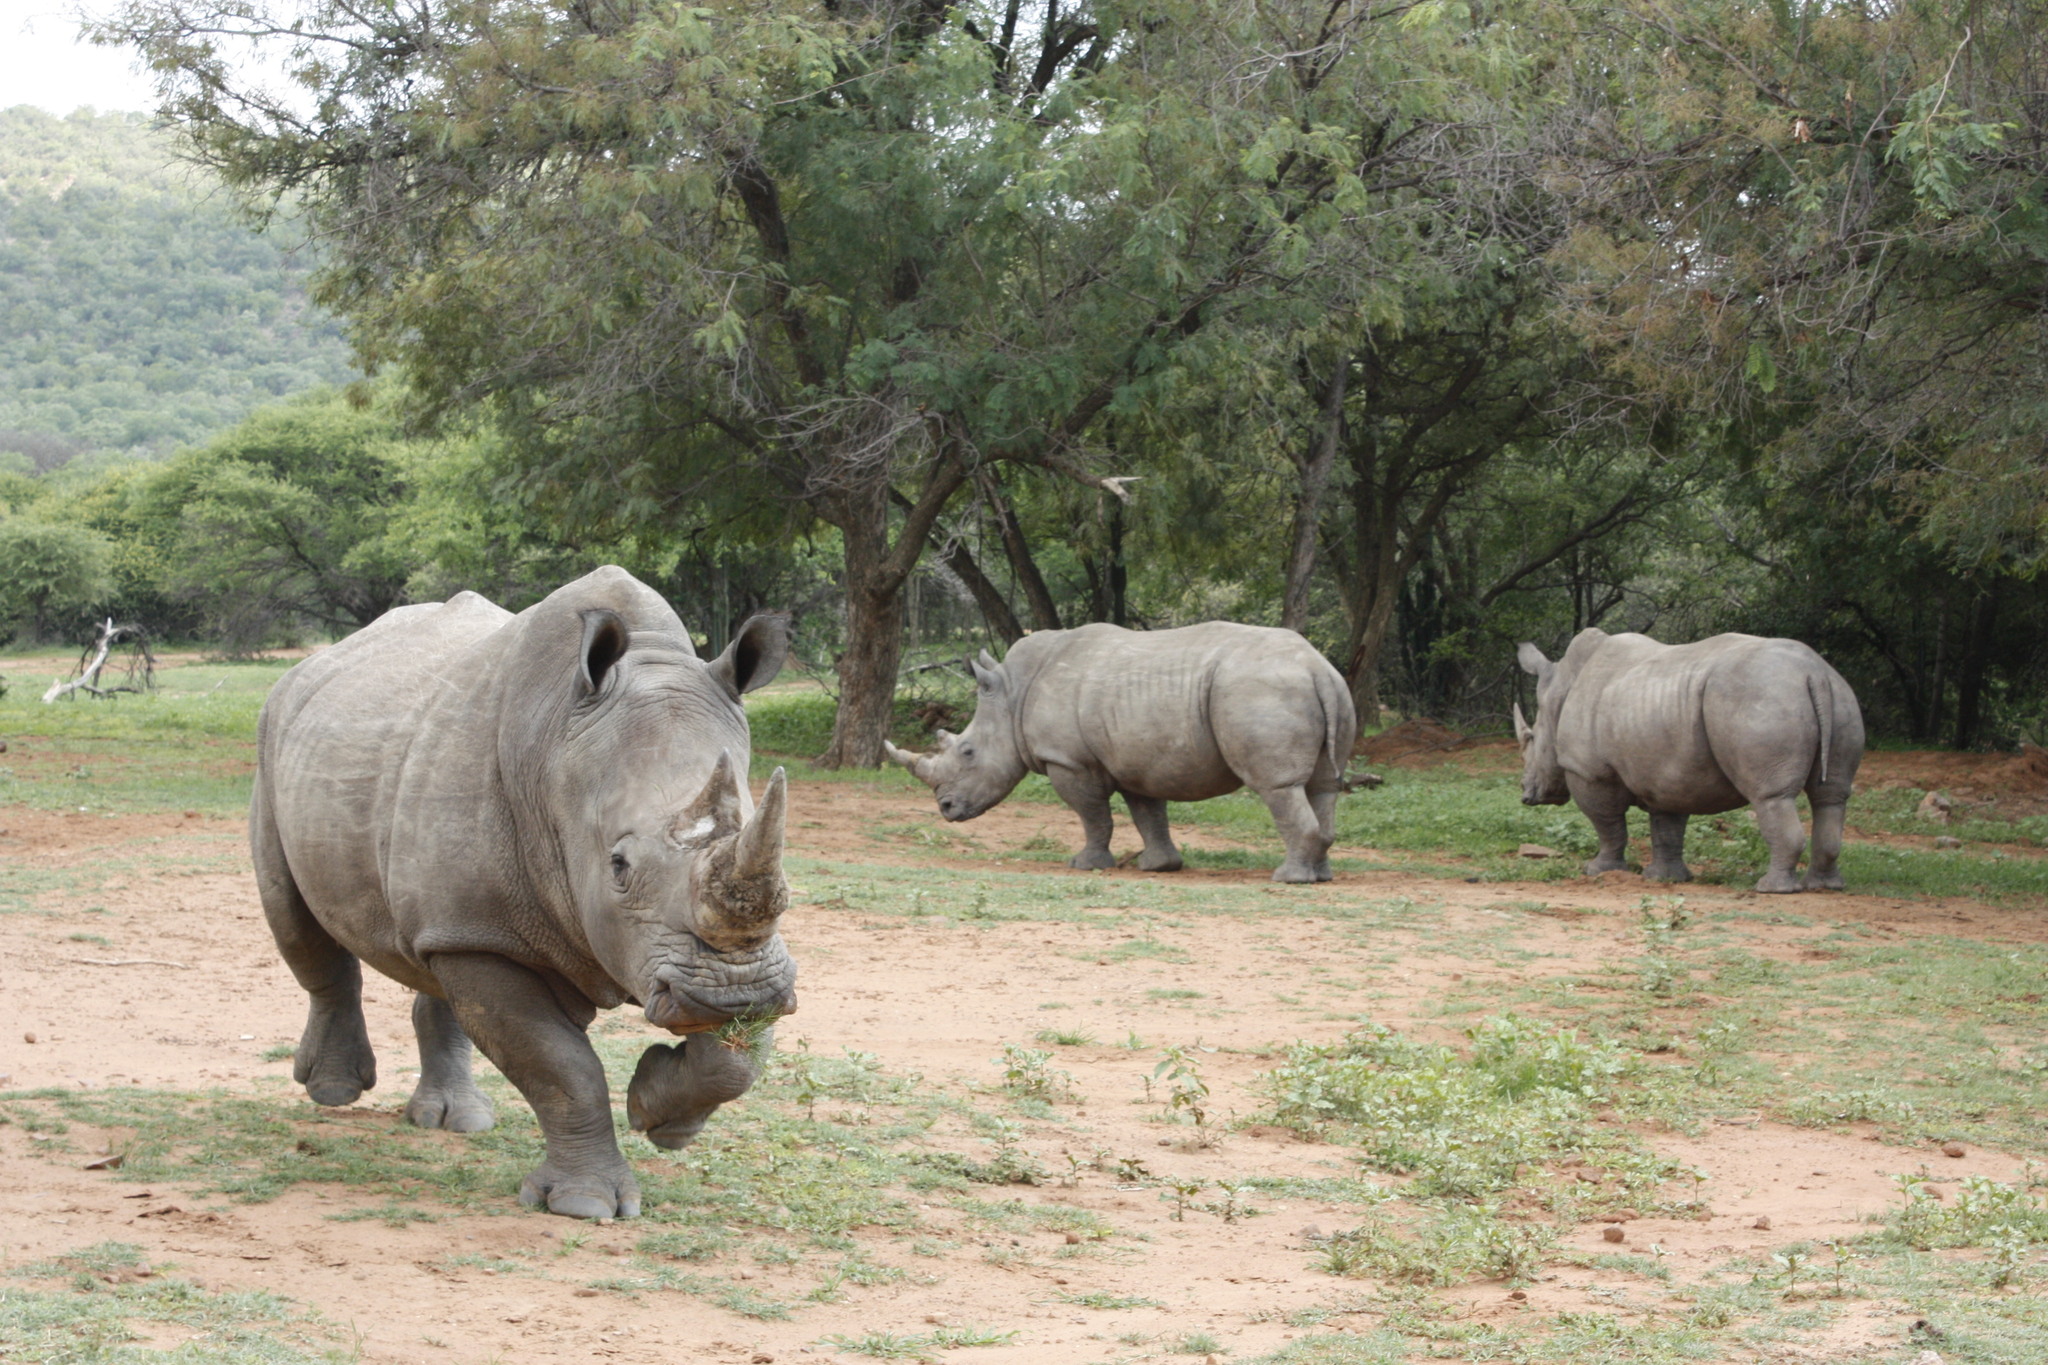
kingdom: Animalia
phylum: Chordata
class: Mammalia
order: Perissodactyla
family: Rhinocerotidae
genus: Ceratotherium
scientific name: Ceratotherium simum
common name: White rhinoceros
